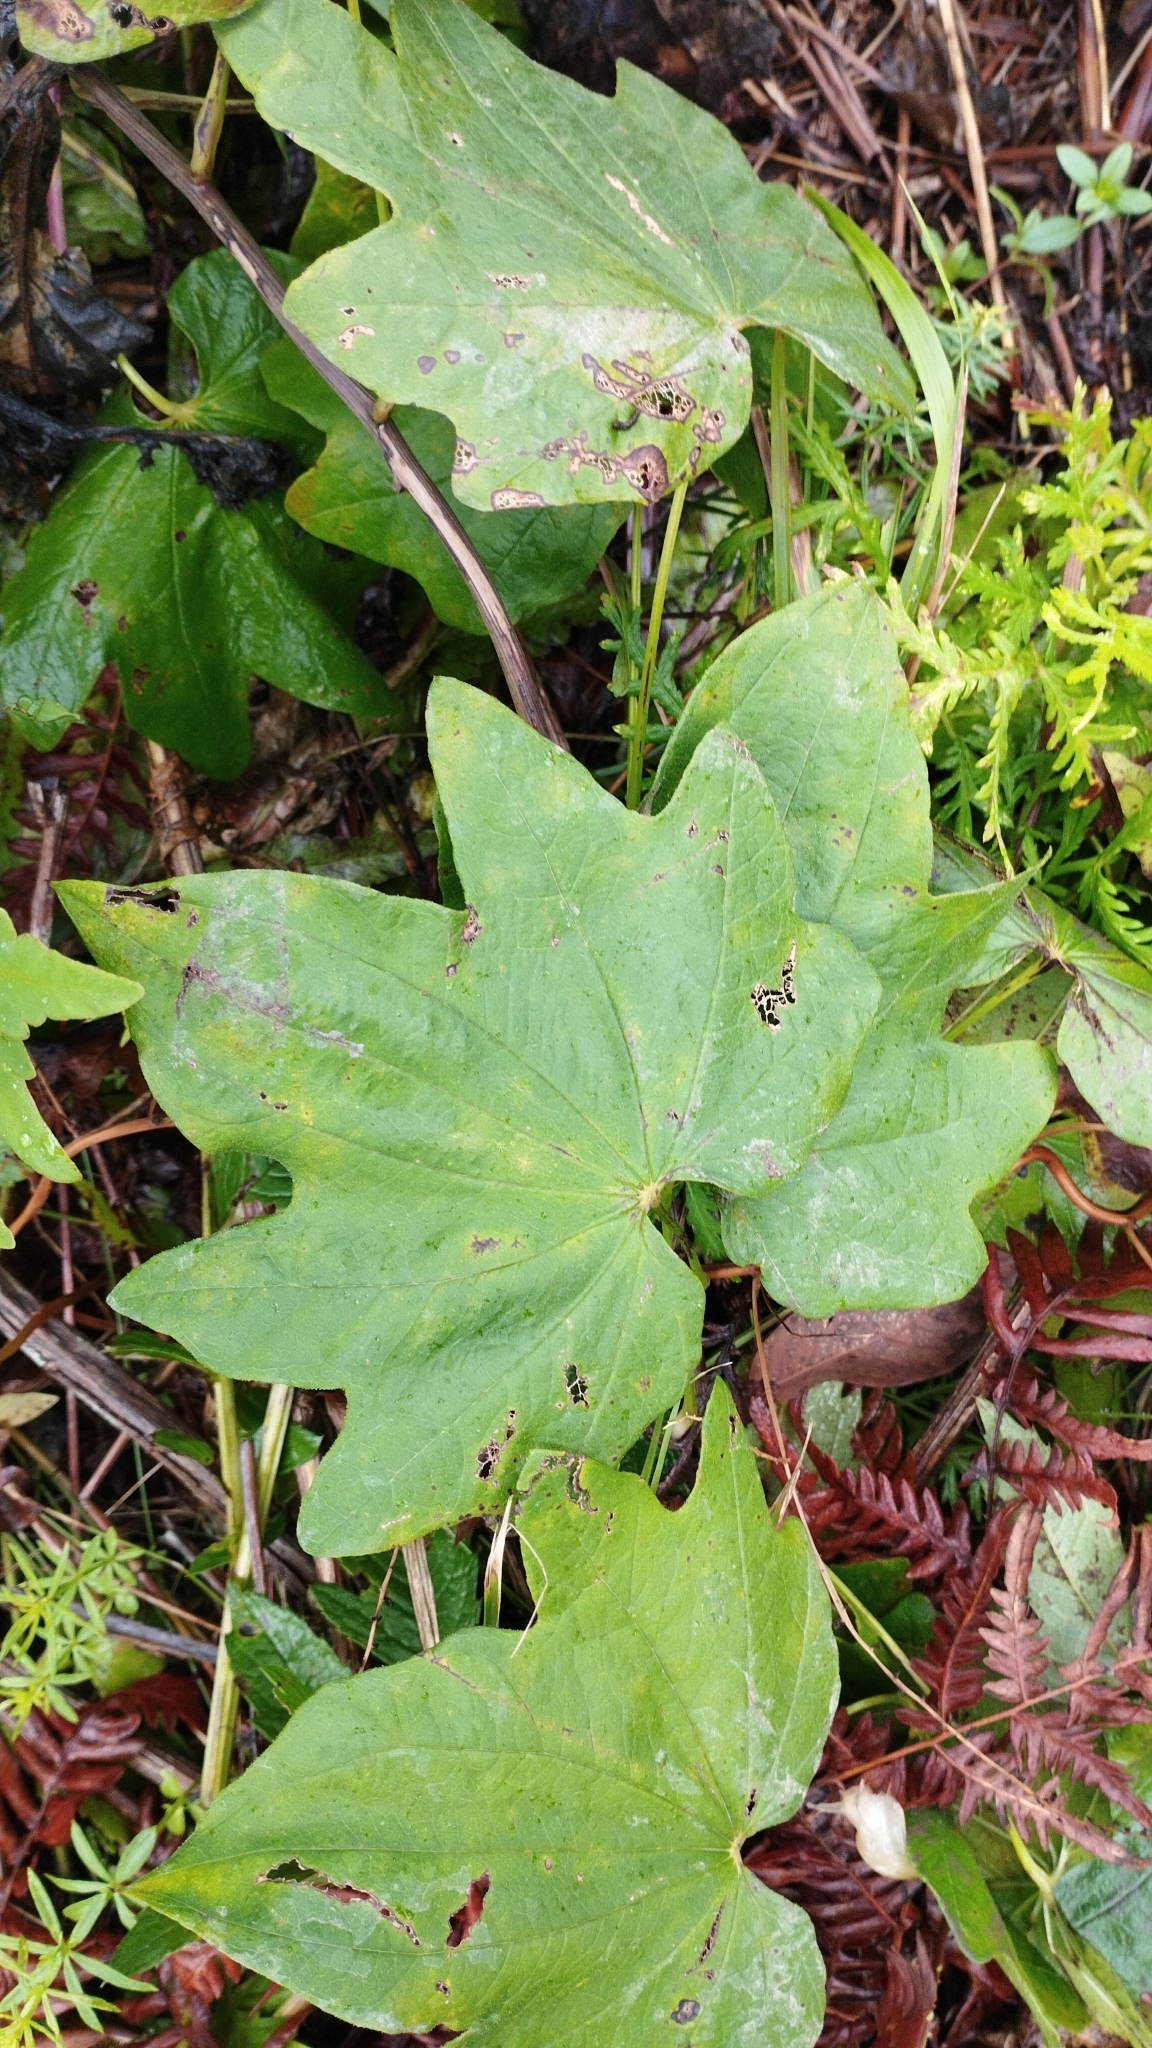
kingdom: Plantae
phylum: Tracheophyta
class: Liliopsida
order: Dioscoreales
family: Dioscoreaceae
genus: Dioscorea
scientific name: Dioscorea nipponica
